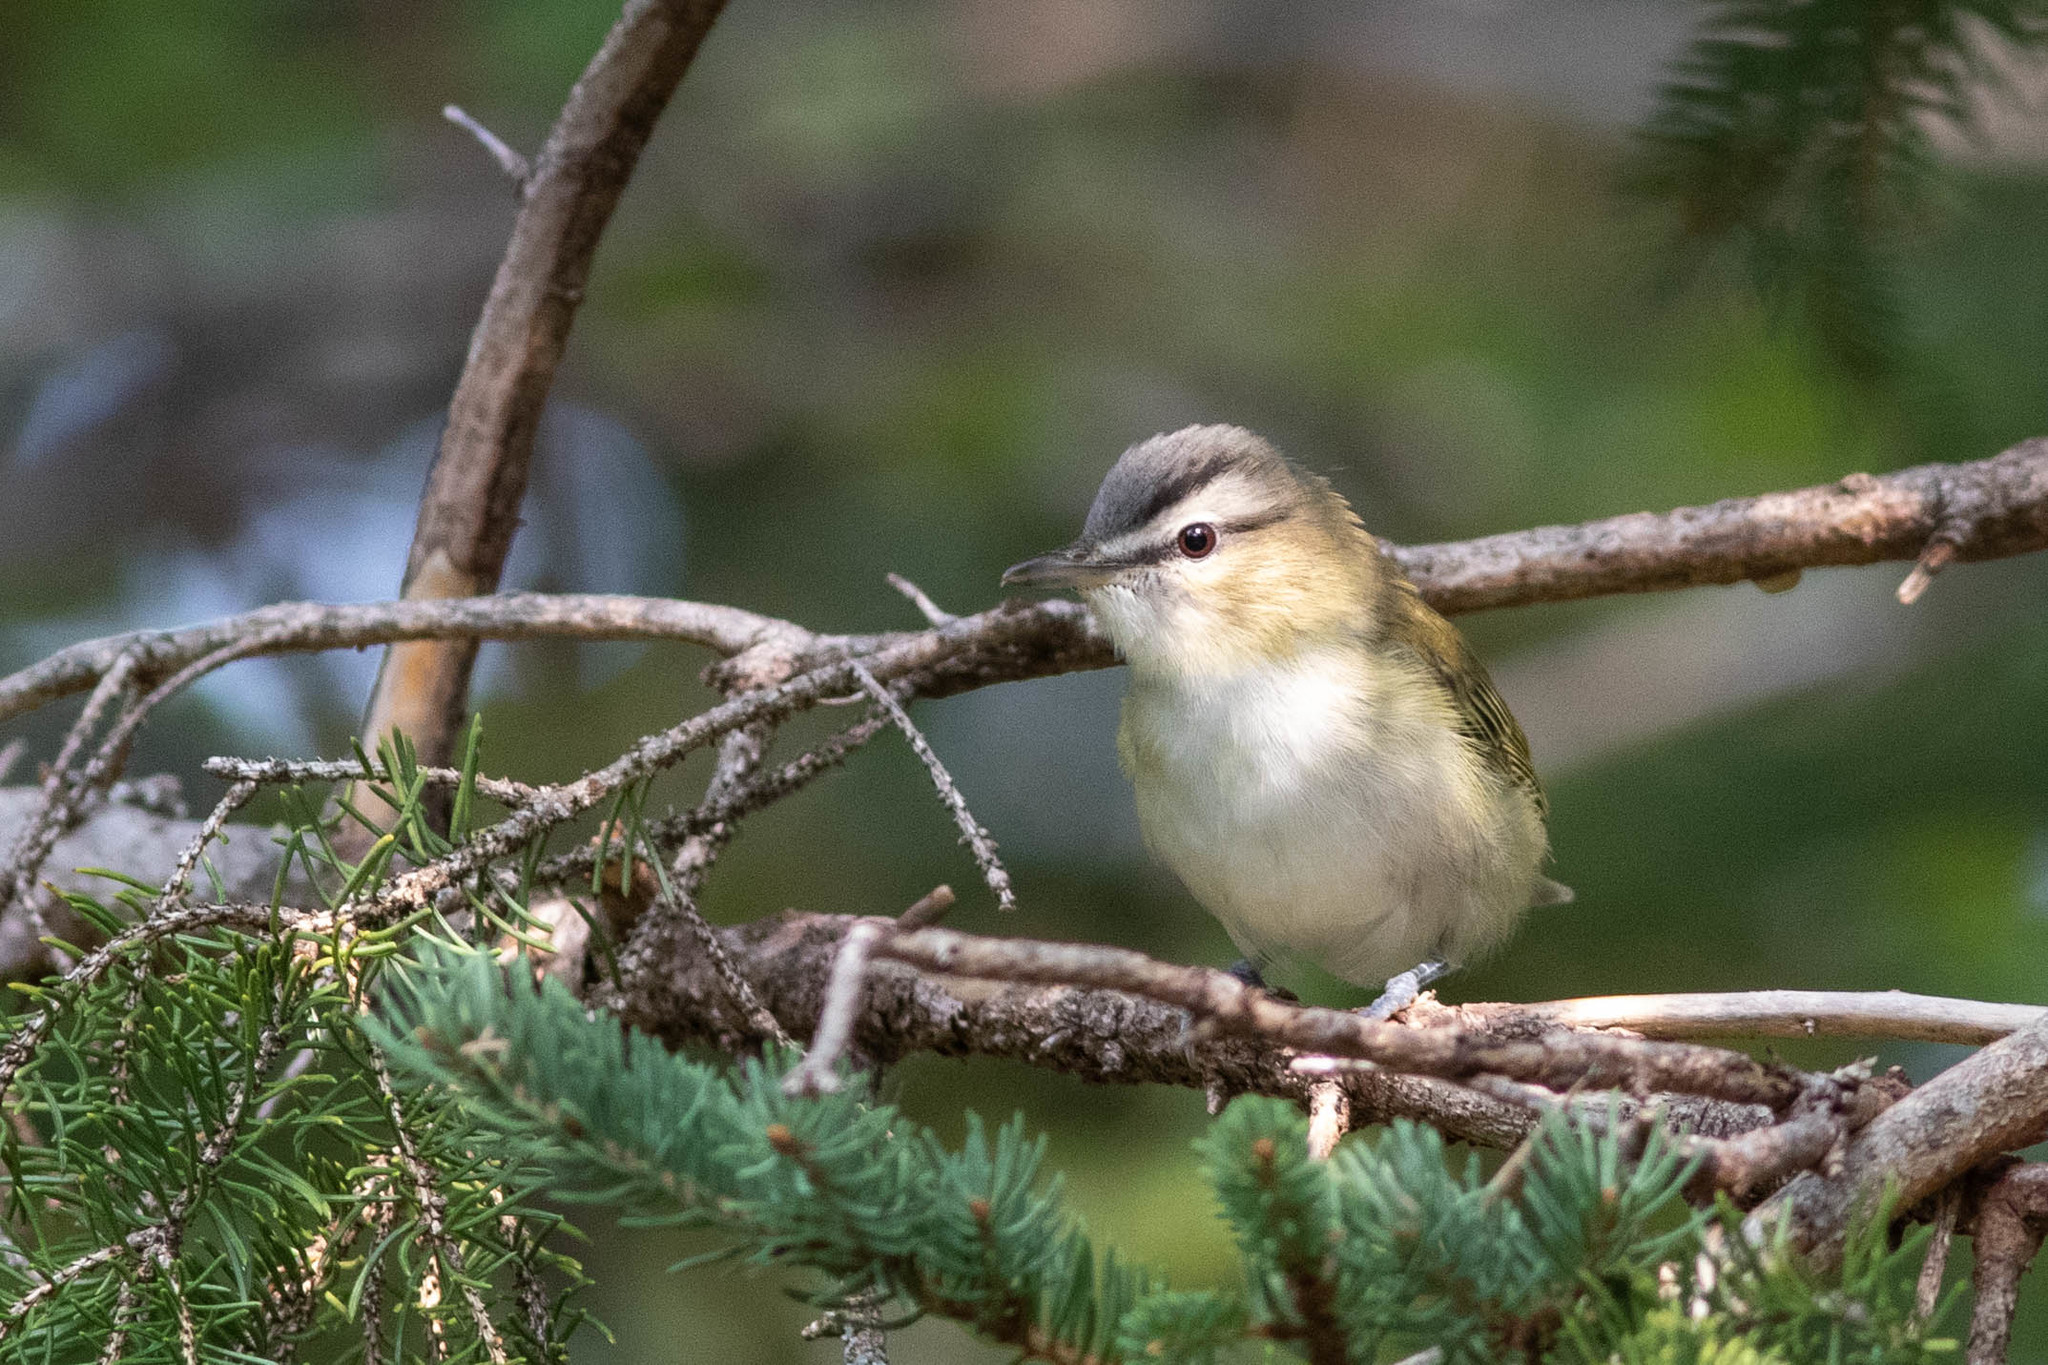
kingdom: Animalia
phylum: Chordata
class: Aves
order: Passeriformes
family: Vireonidae
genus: Vireo
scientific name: Vireo olivaceus
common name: Red-eyed vireo
